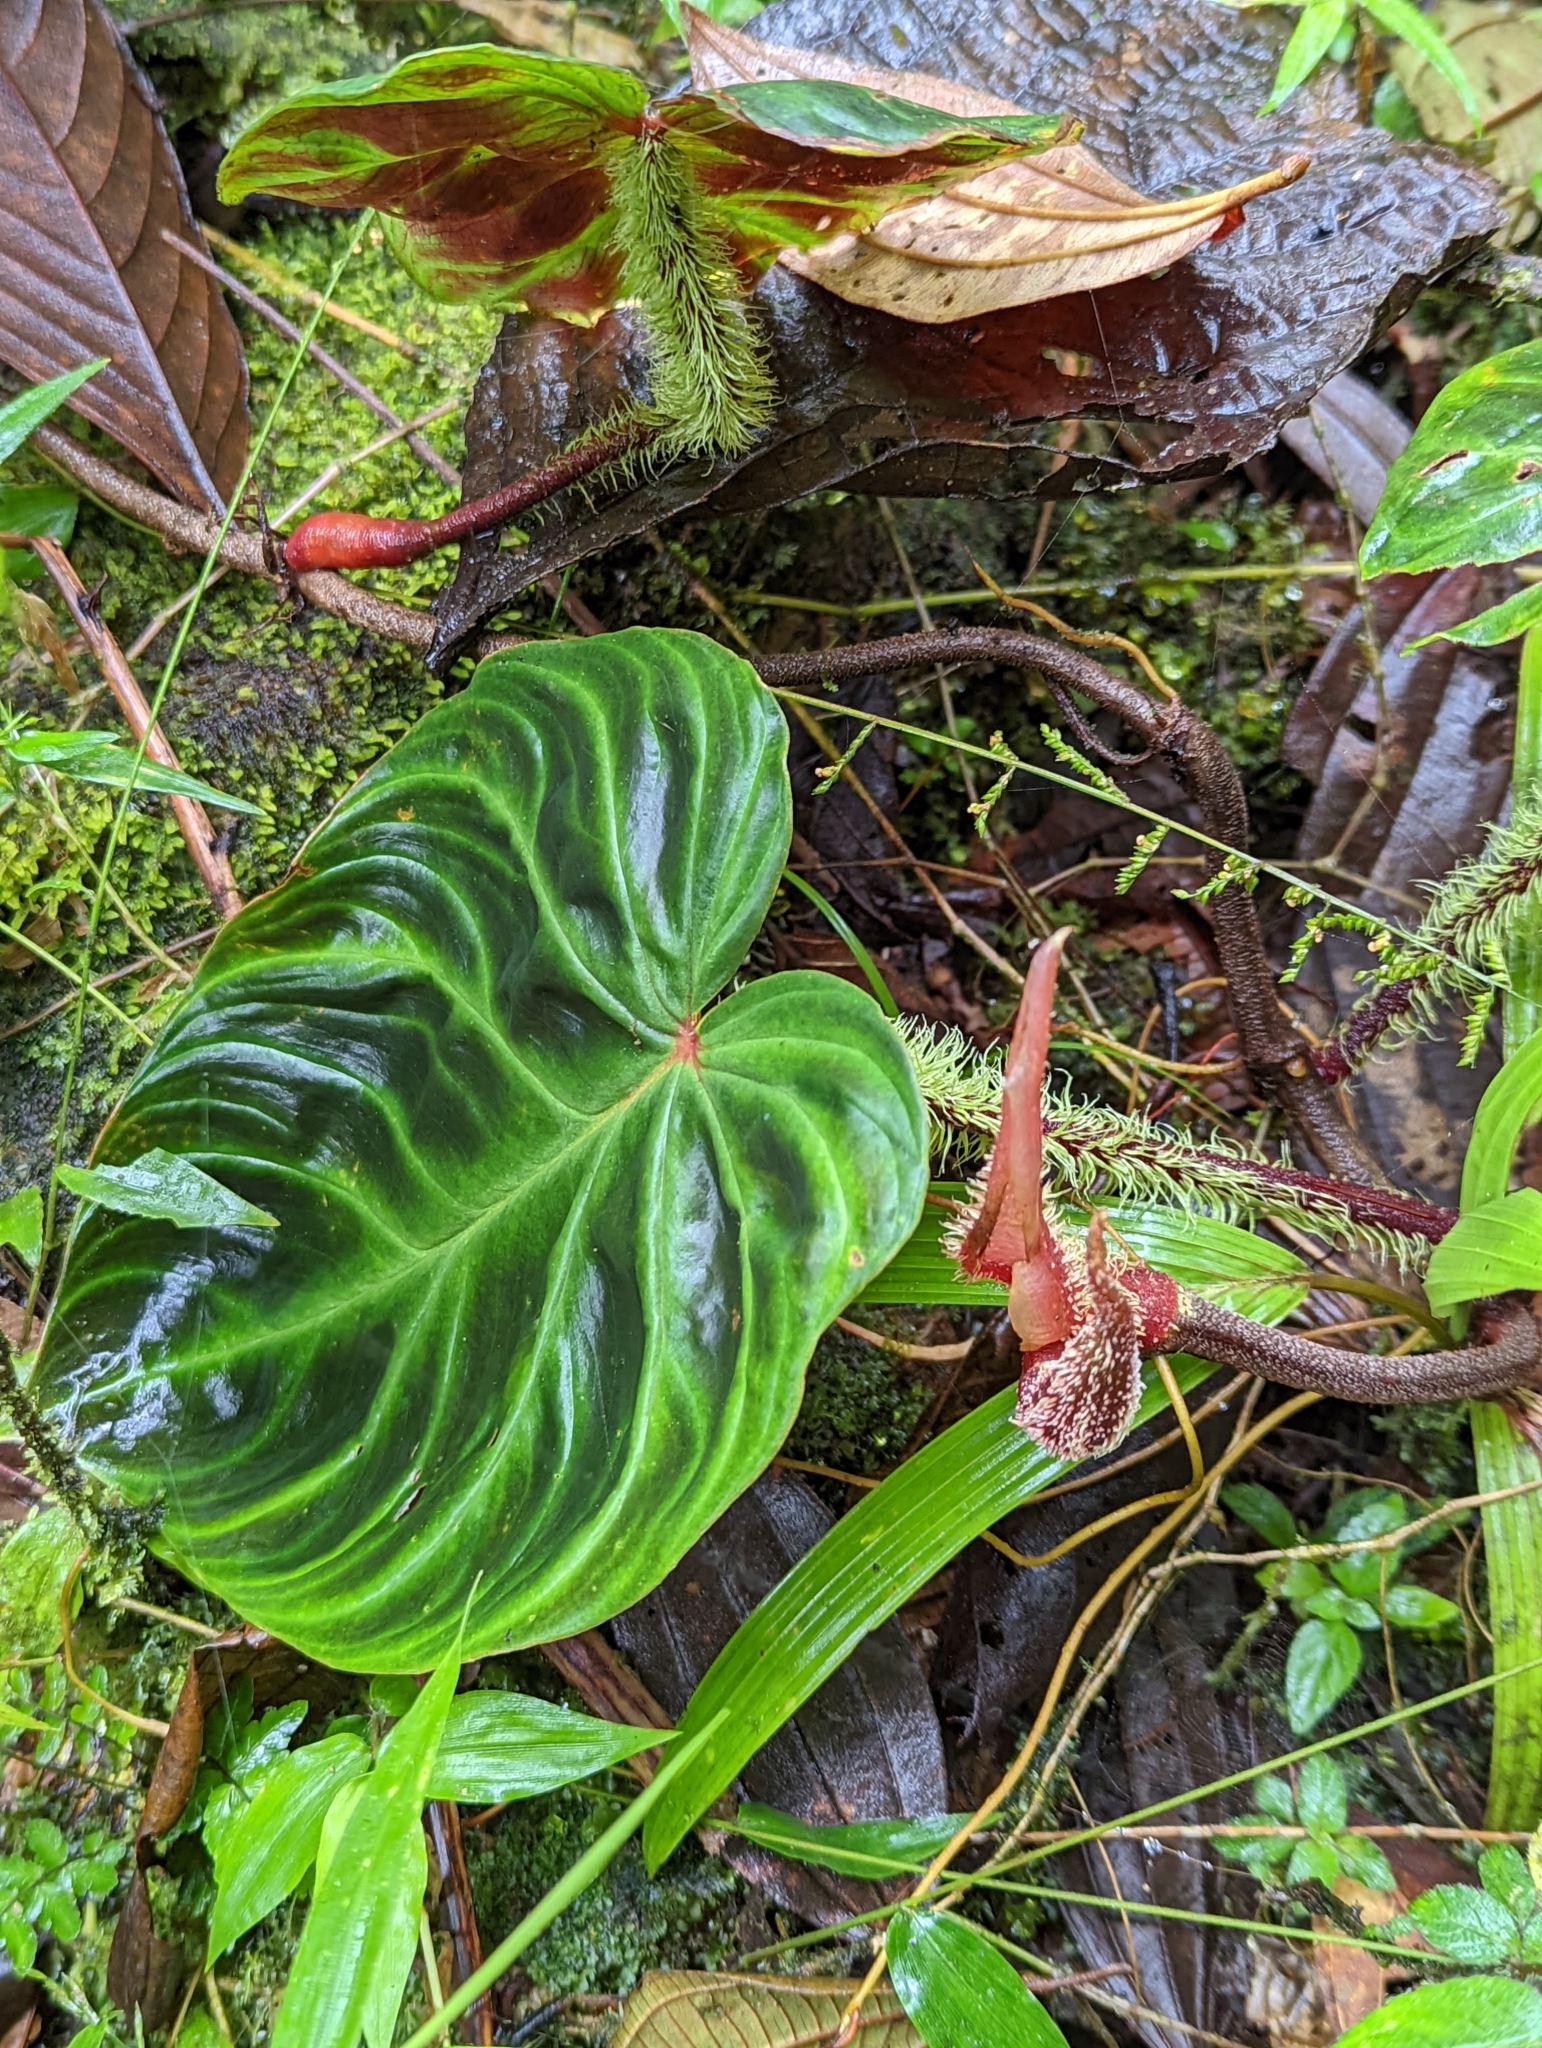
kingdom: Plantae
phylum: Tracheophyta
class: Liliopsida
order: Alismatales
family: Araceae
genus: Philodendron
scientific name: Philodendron verrucosum
